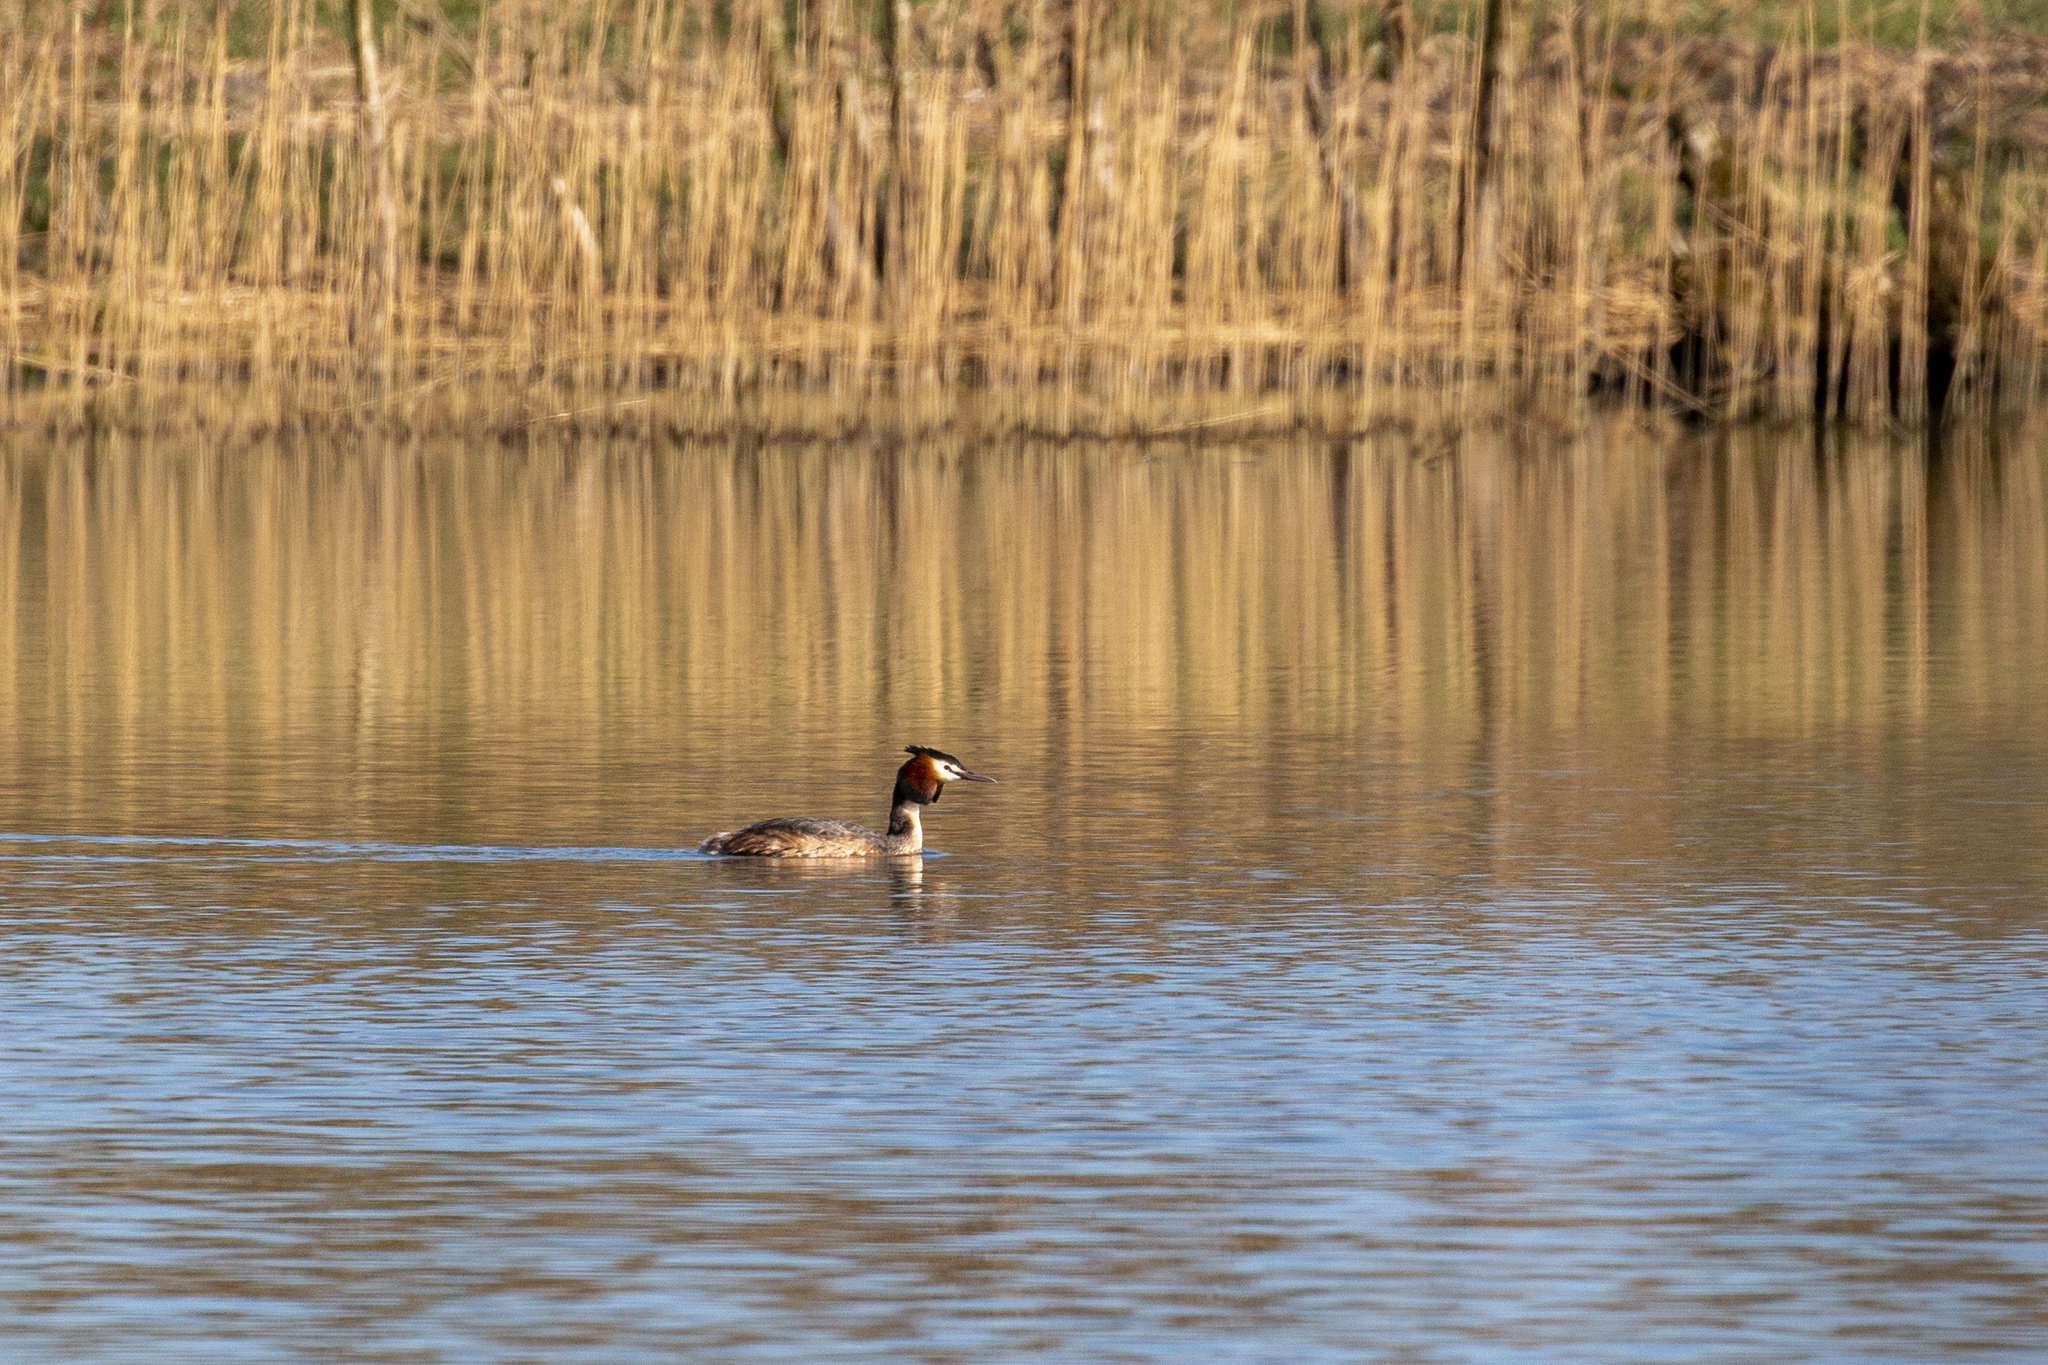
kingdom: Animalia
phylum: Chordata
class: Aves
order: Podicipediformes
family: Podicipedidae
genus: Podiceps
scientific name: Podiceps cristatus
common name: Great crested grebe
